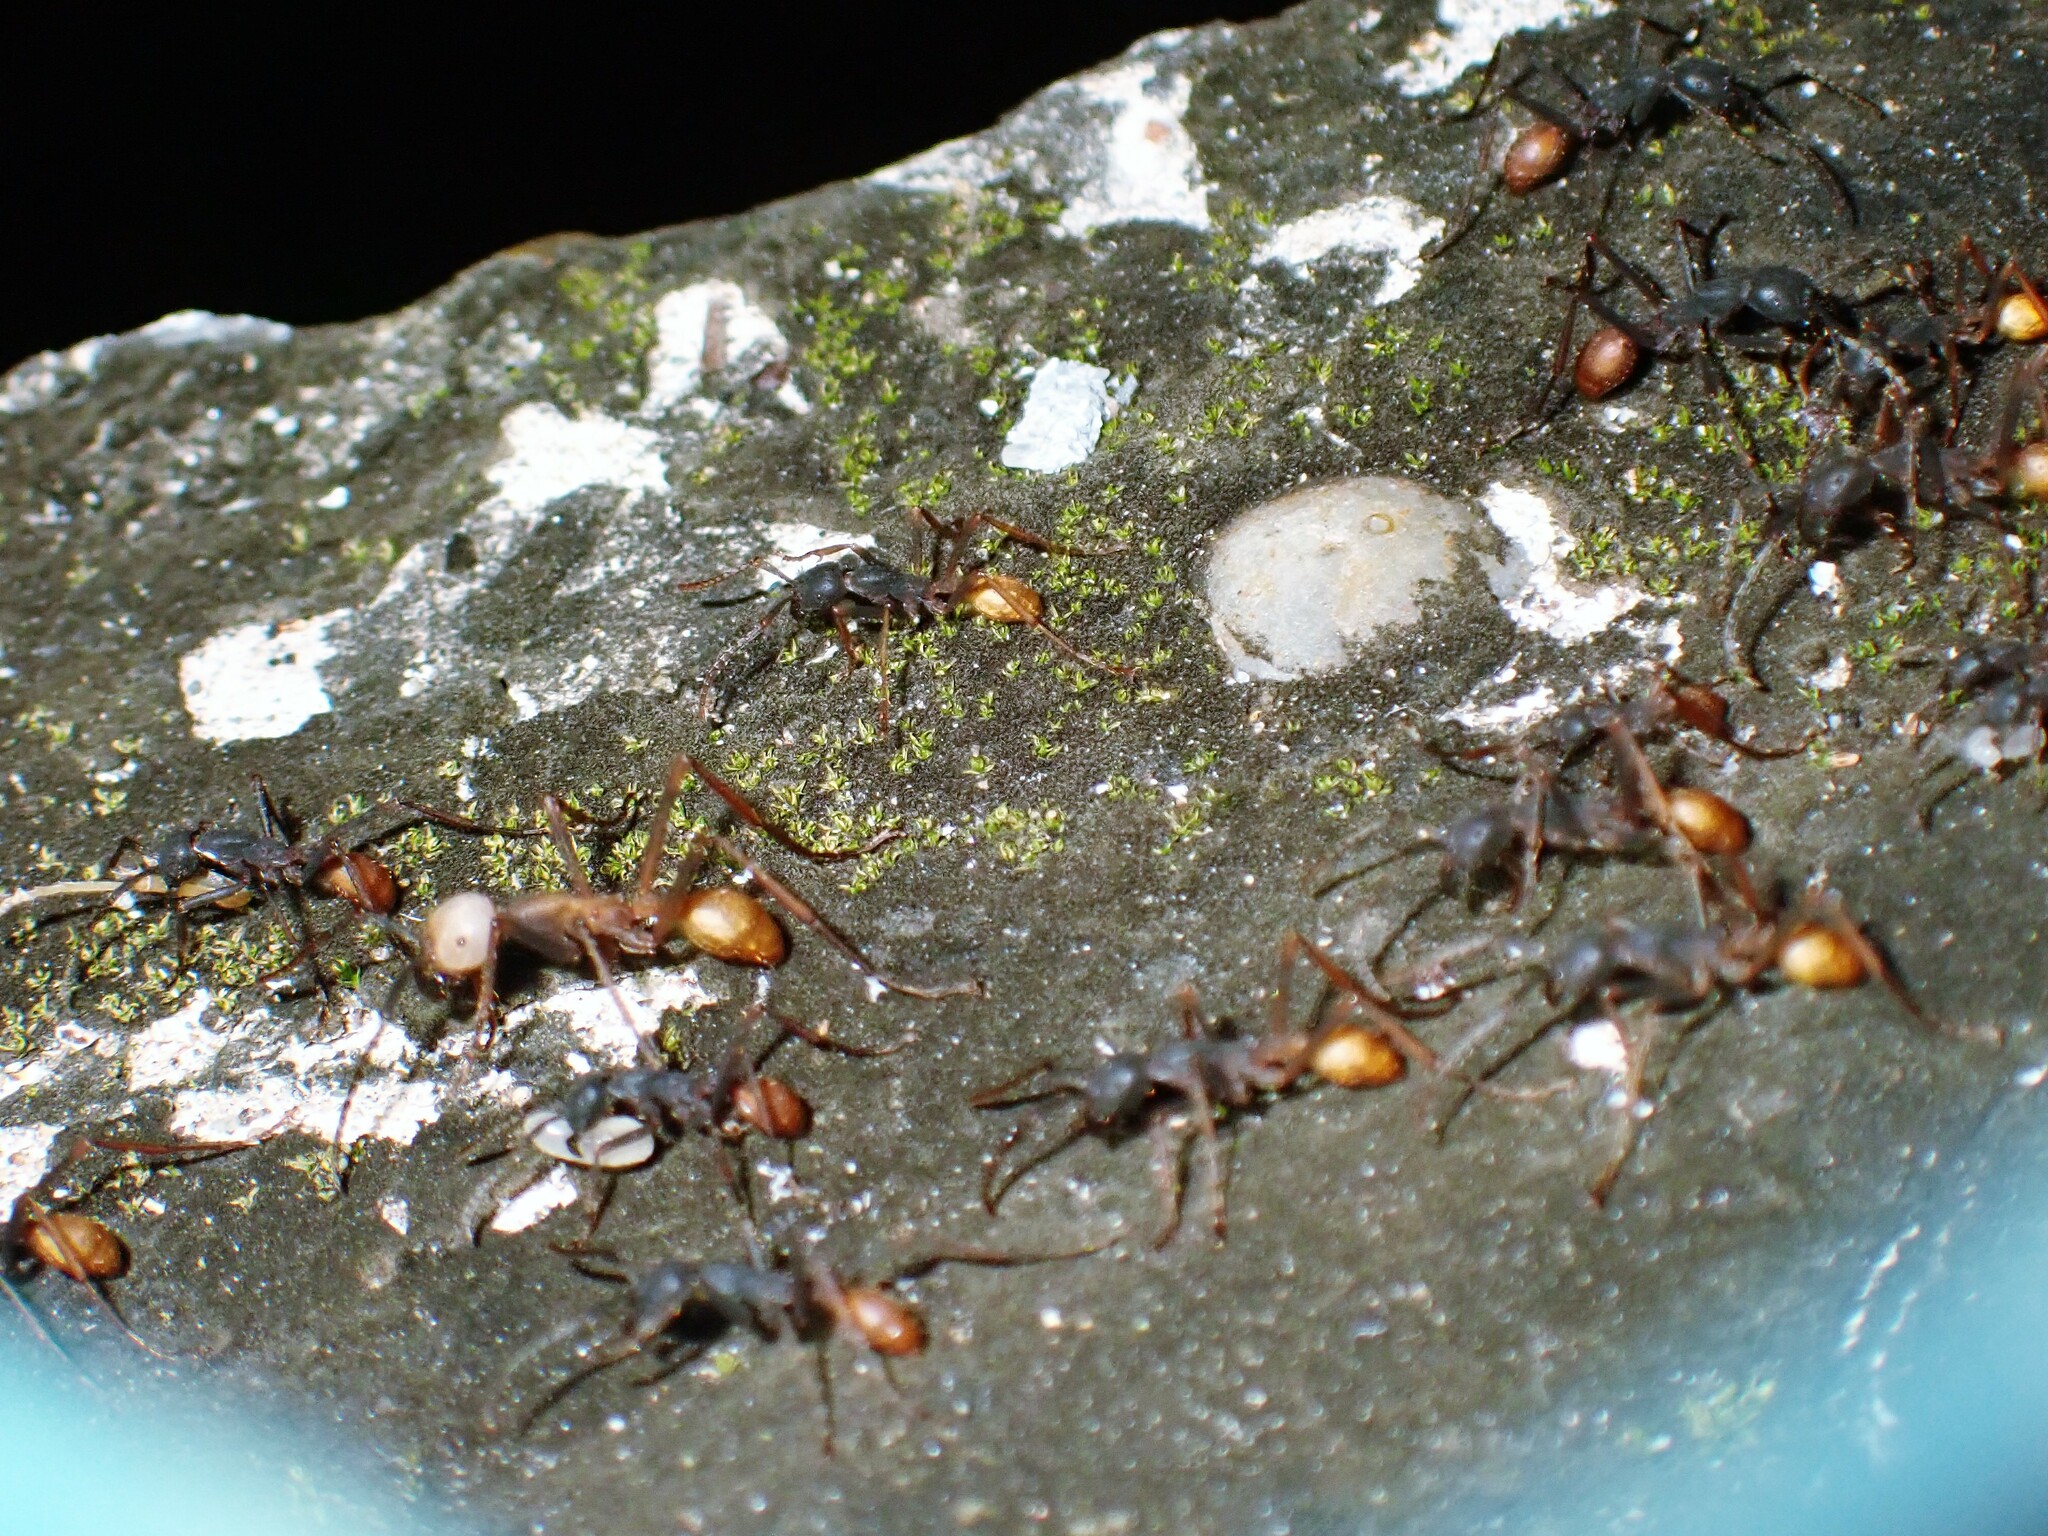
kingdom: Animalia
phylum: Arthropoda
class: Insecta
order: Hymenoptera
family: Formicidae
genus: Eciton
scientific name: Eciton burchellii
